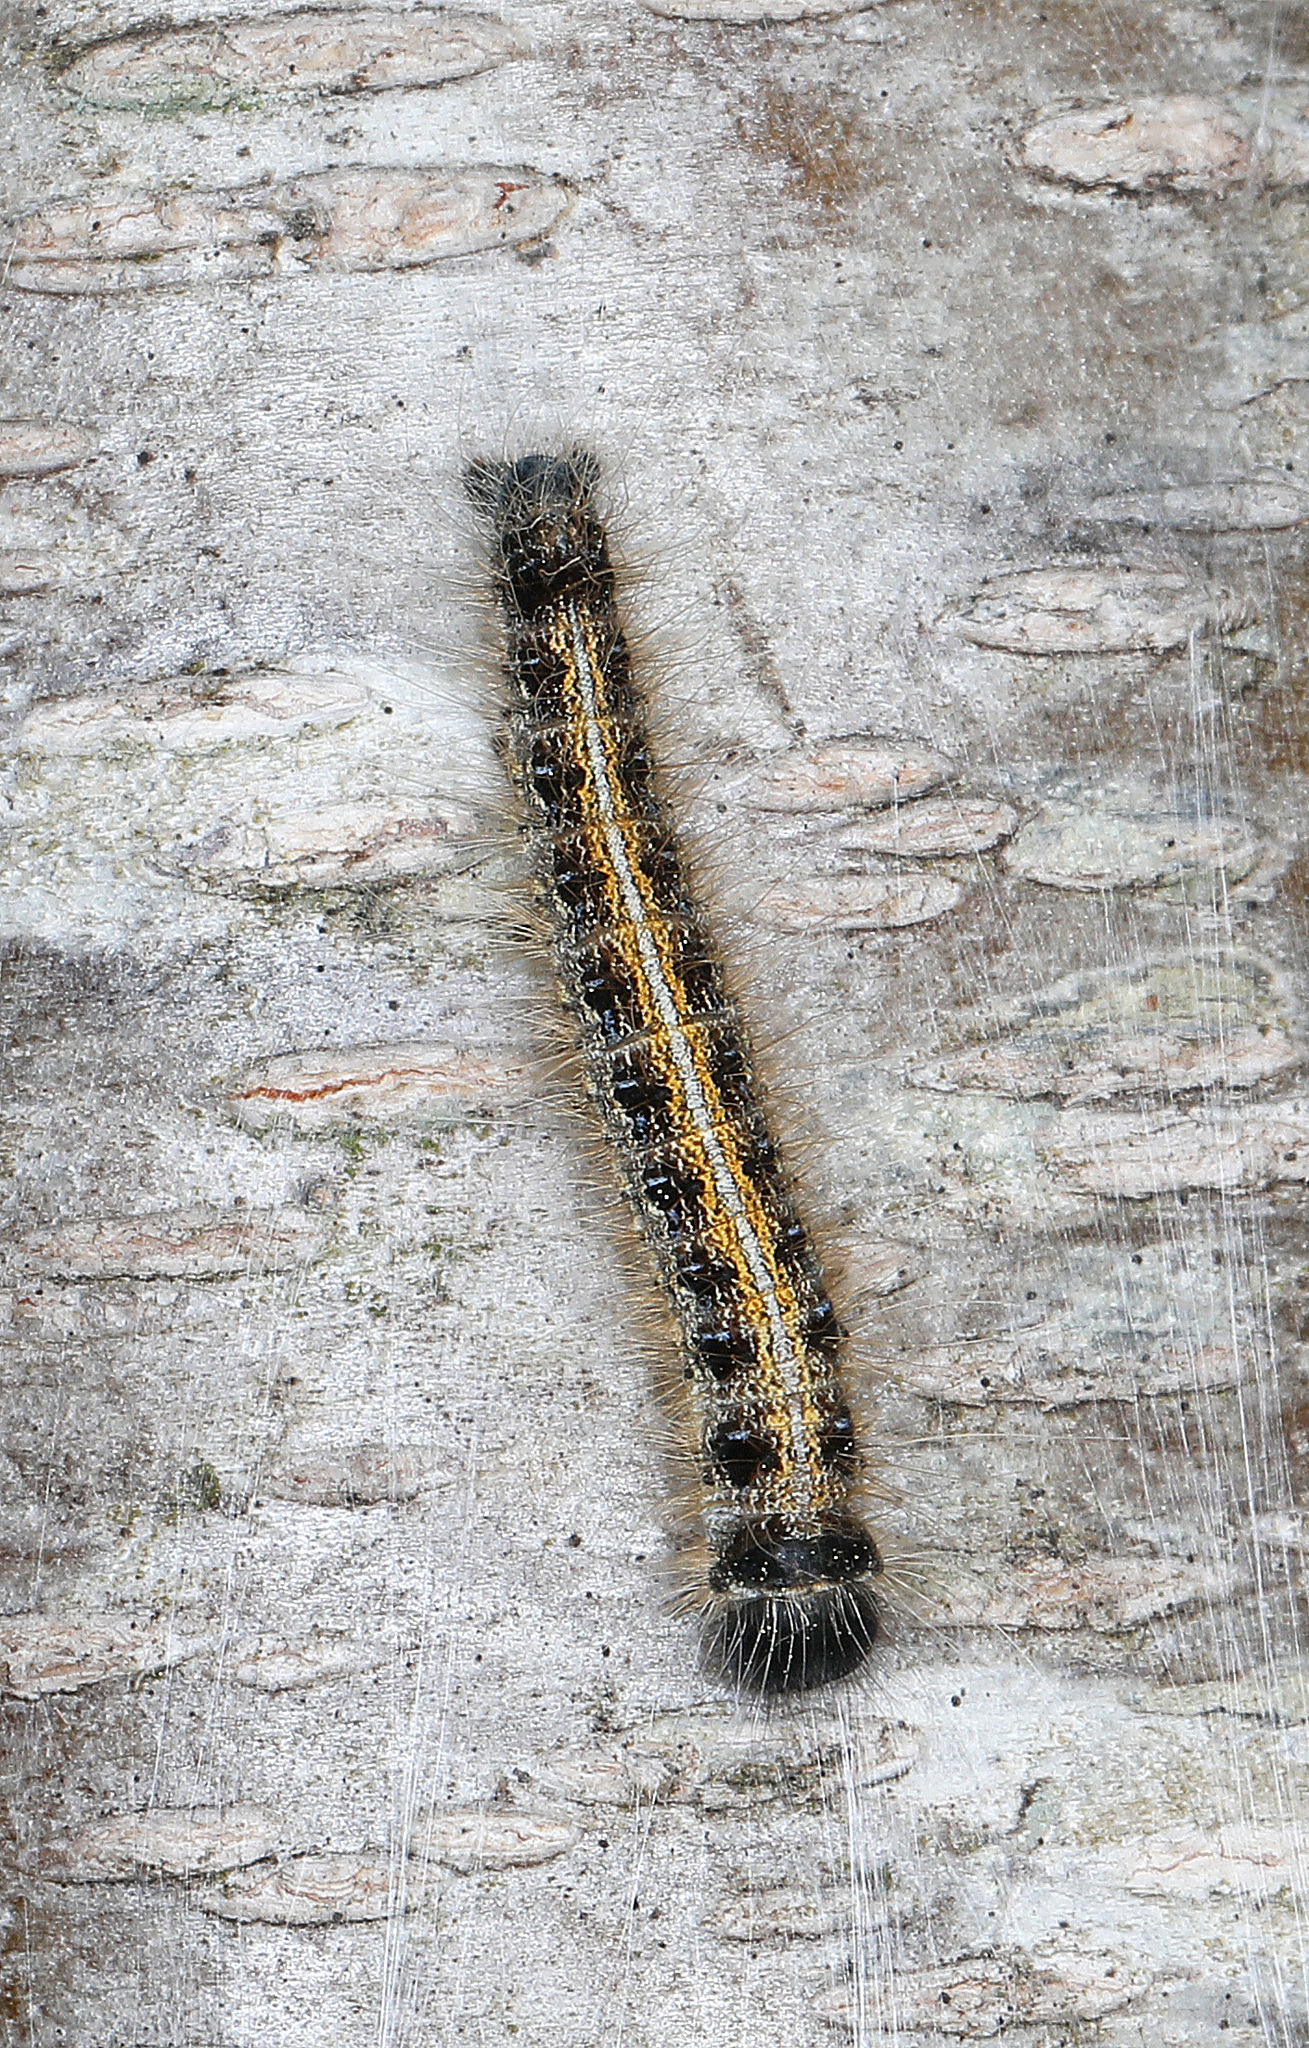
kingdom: Animalia
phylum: Arthropoda
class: Insecta
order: Lepidoptera
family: Lasiocampidae
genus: Malacosoma
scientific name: Malacosoma americana
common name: Eastern tent caterpillar moth
